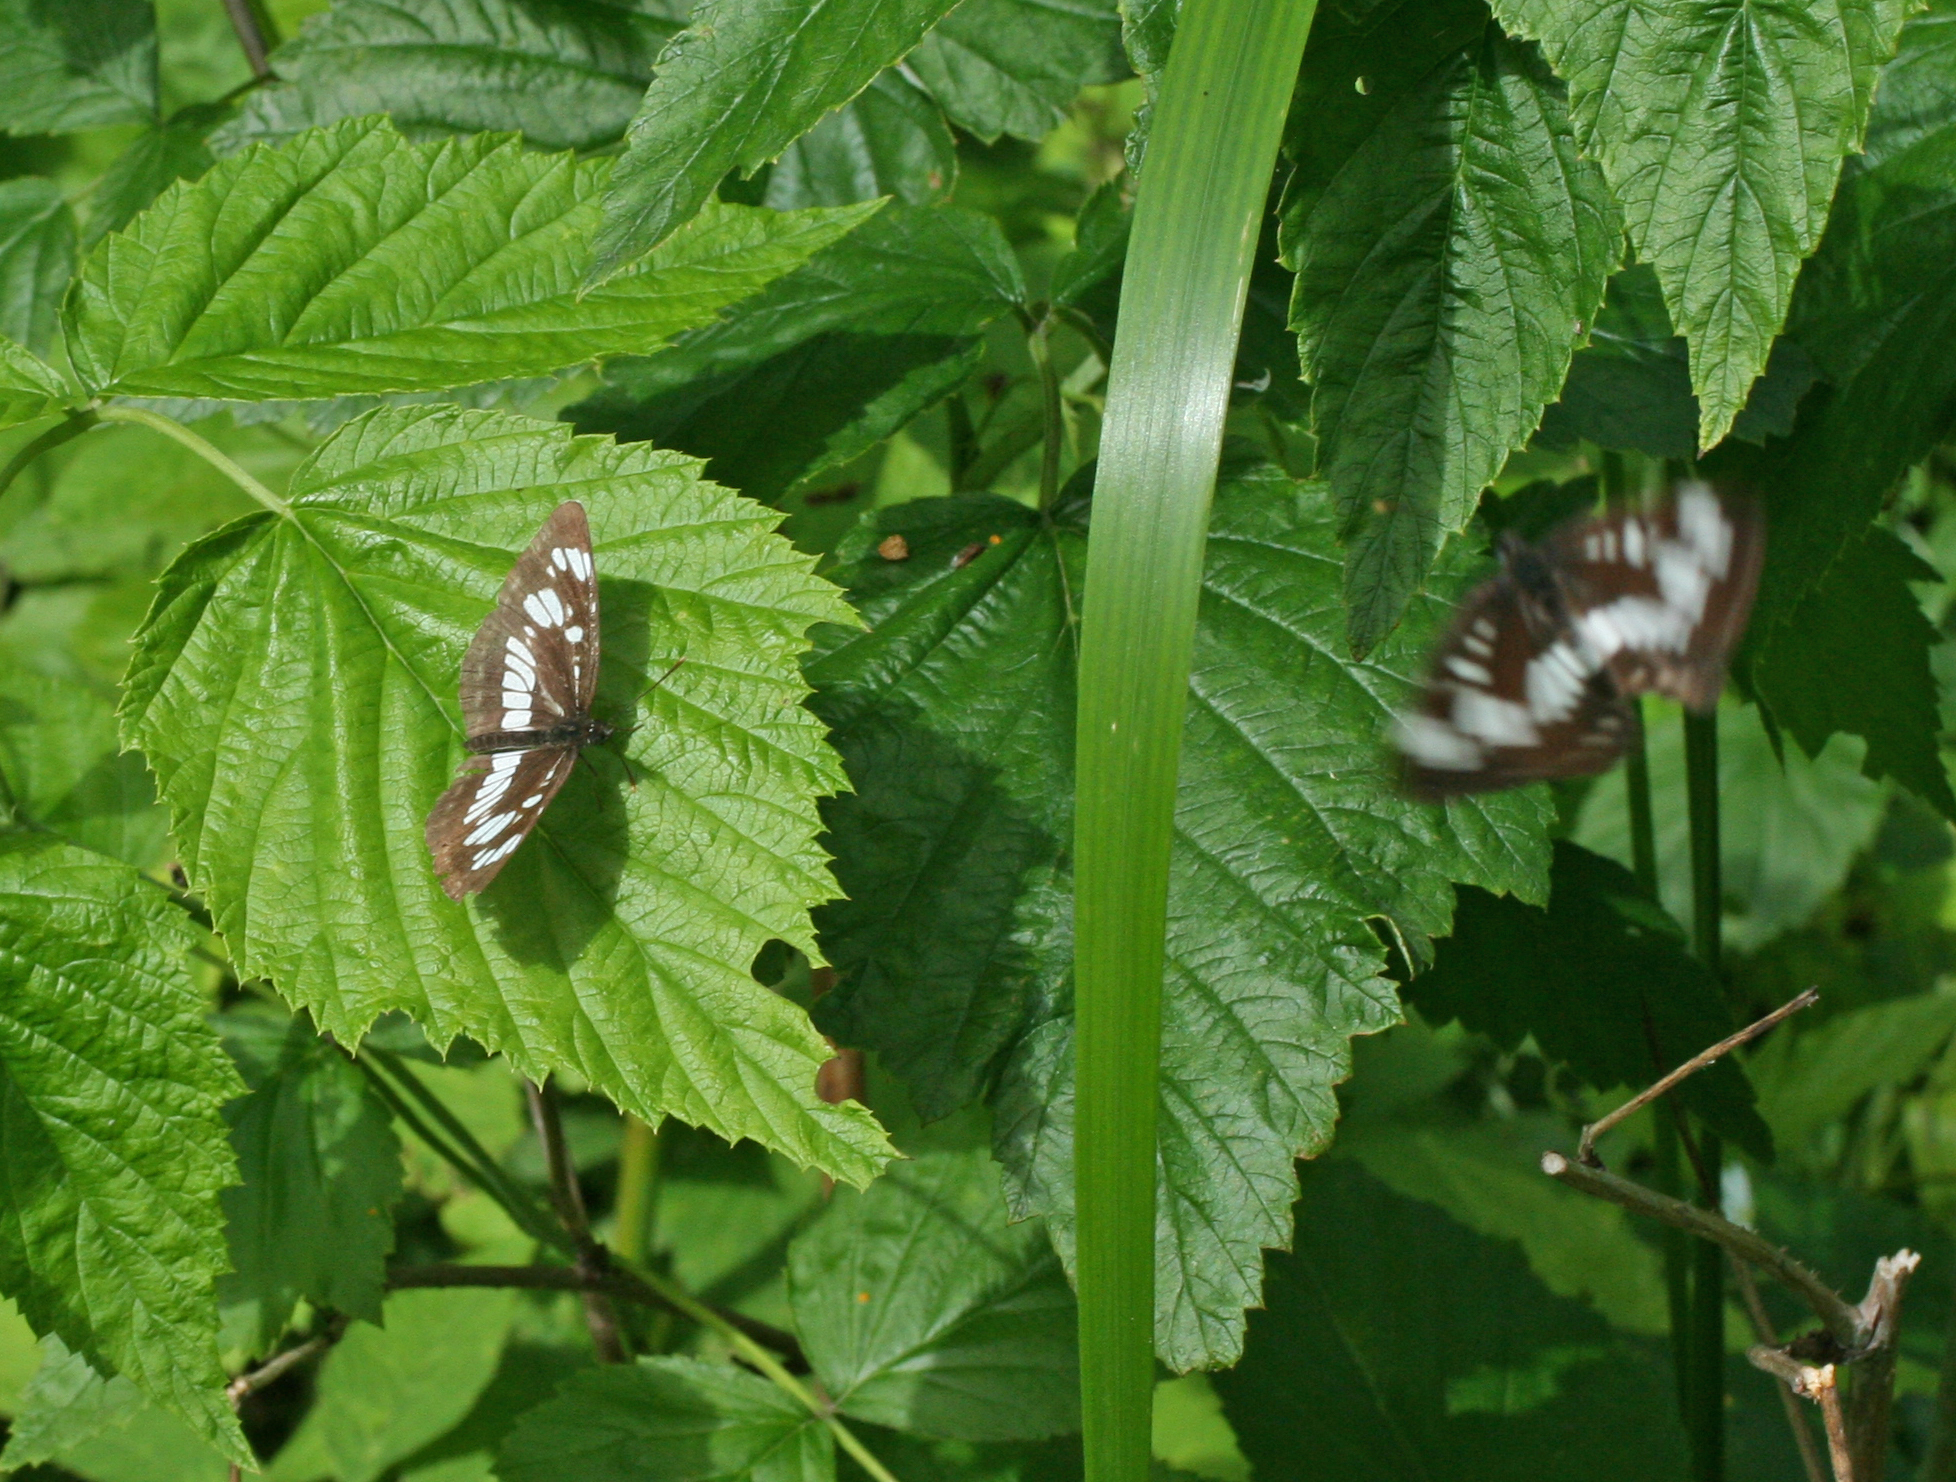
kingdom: Animalia
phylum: Arthropoda
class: Insecta
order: Lepidoptera
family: Nymphalidae
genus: Neptis
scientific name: Neptis rivularis
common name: Hungarian glider
